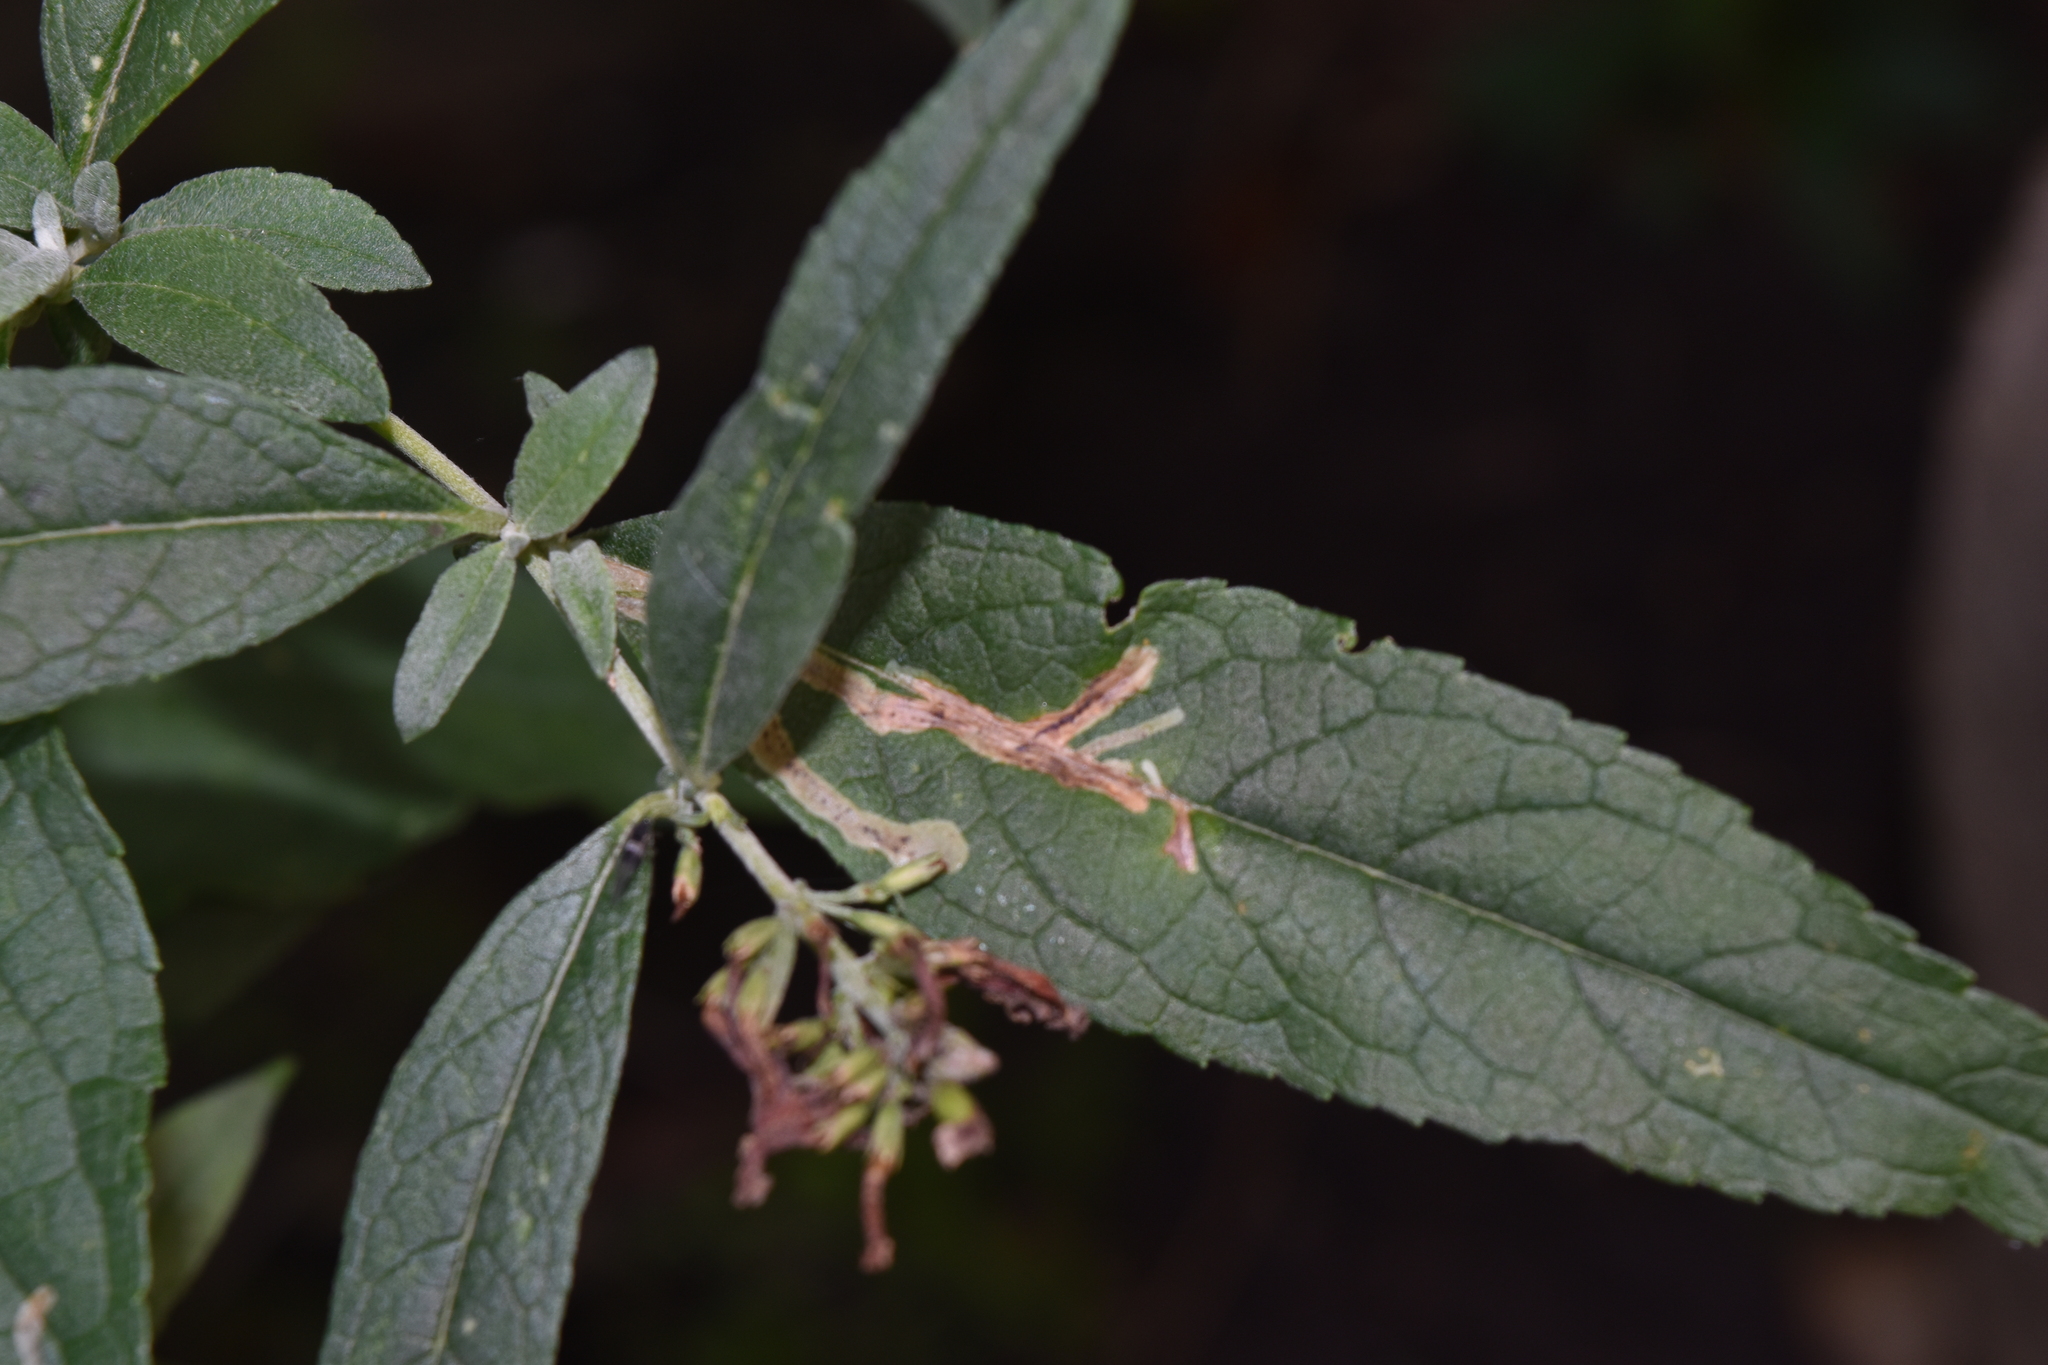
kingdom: Animalia
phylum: Arthropoda
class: Insecta
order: Diptera
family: Agromyzidae
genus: Amauromyza
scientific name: Amauromyza verbasci
